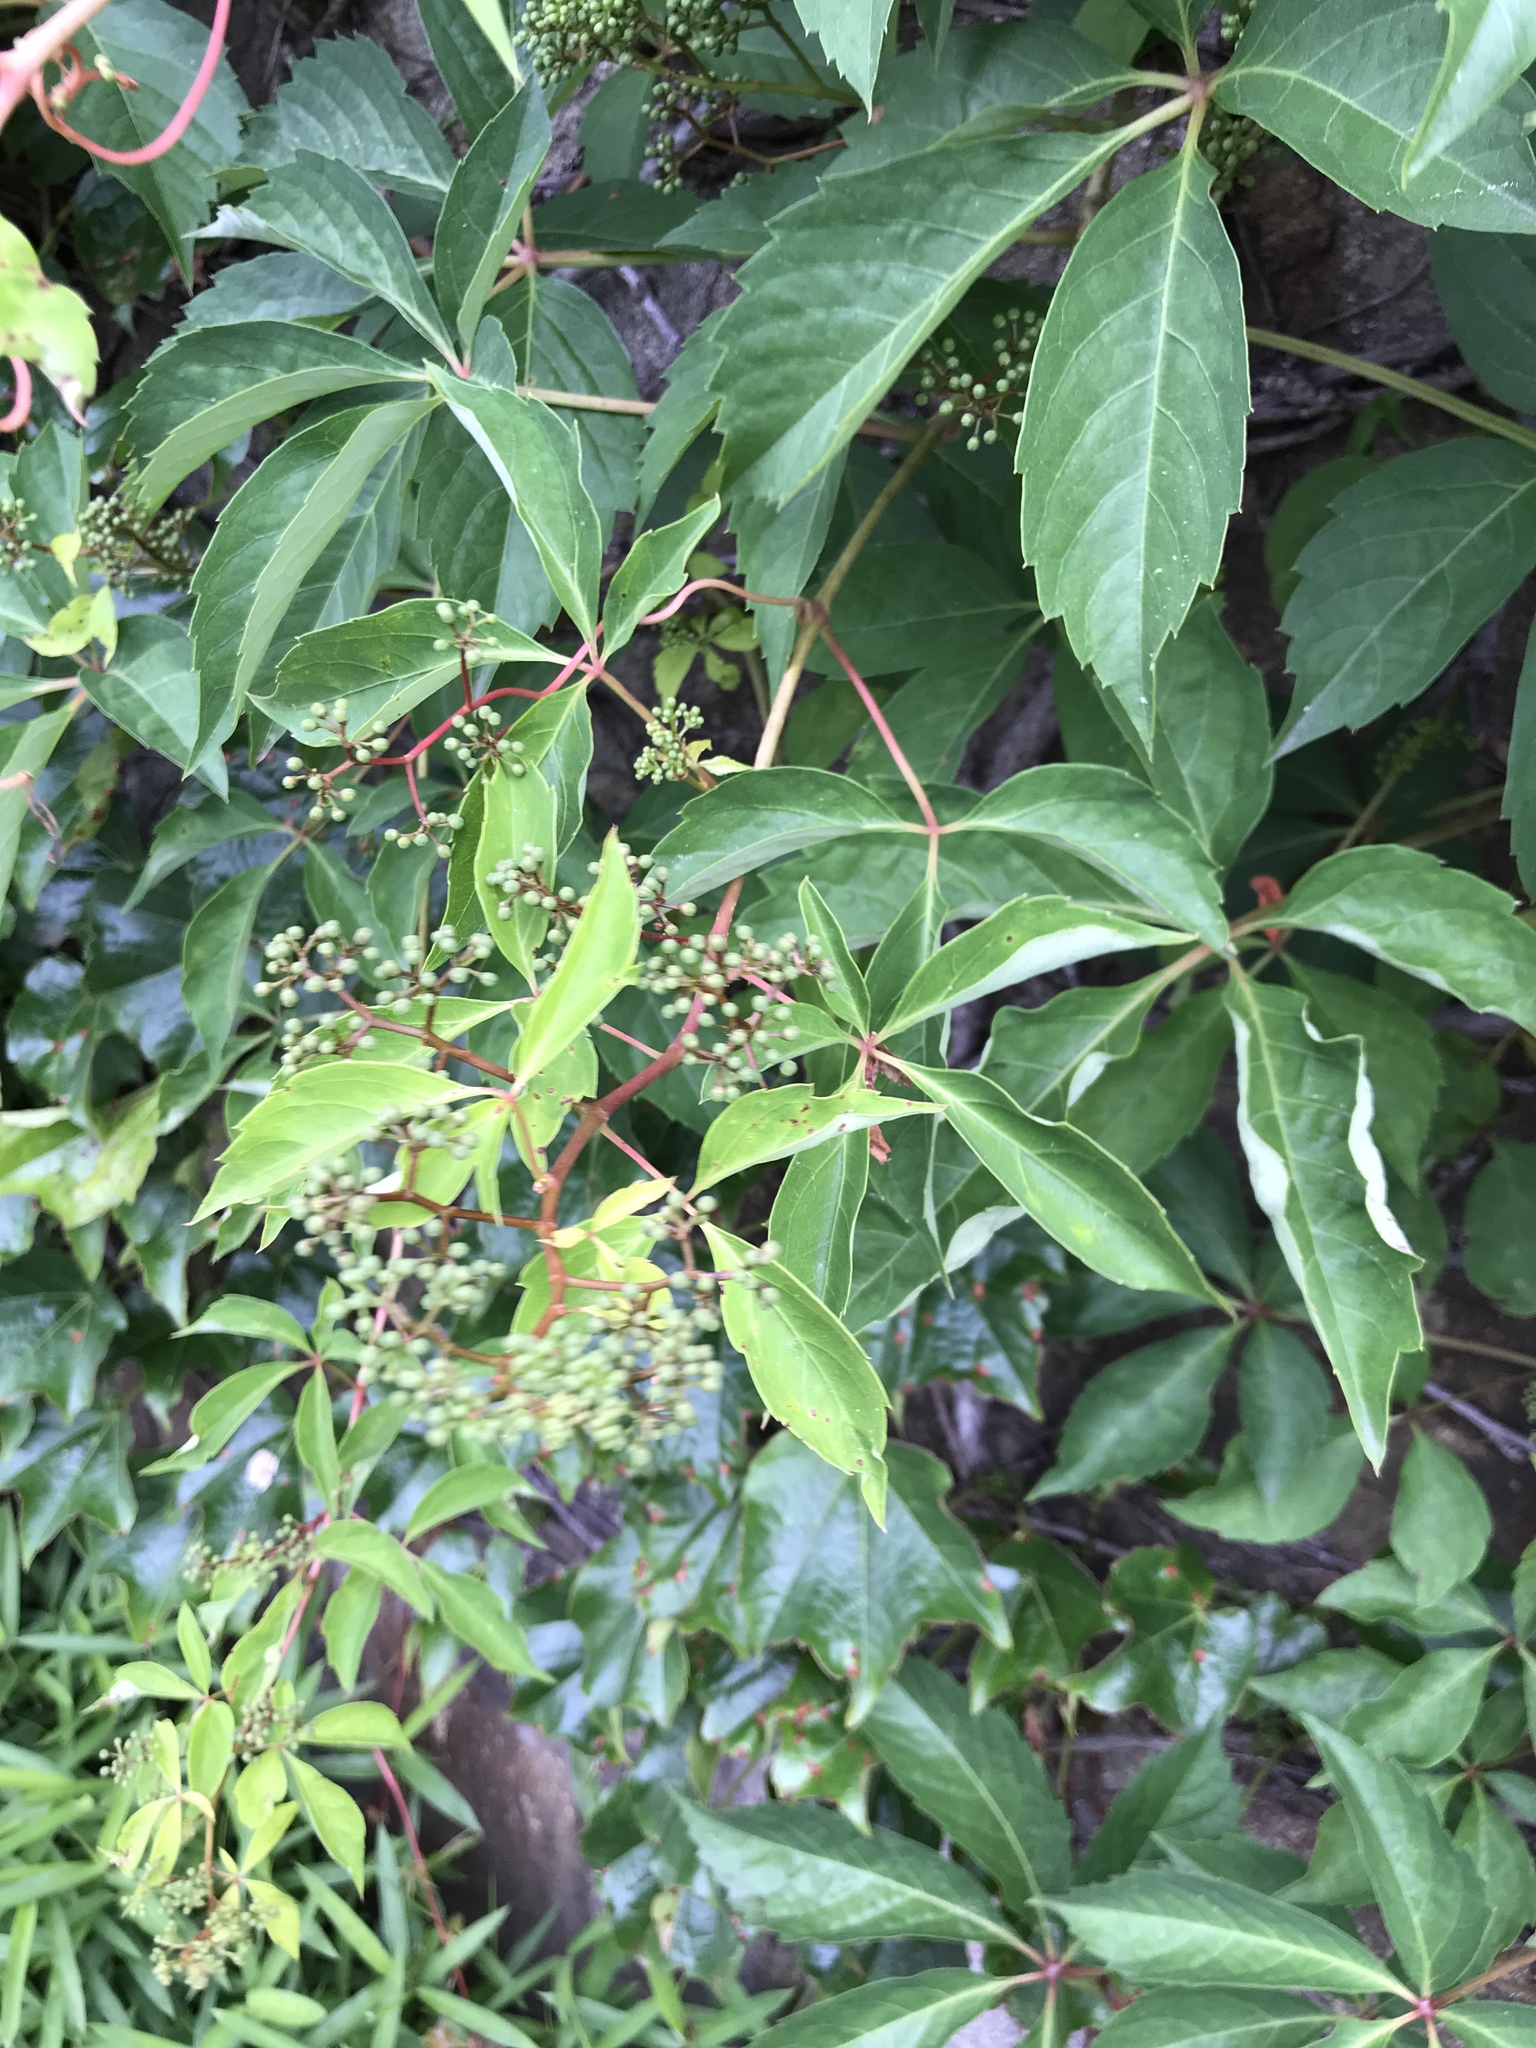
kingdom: Plantae
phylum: Tracheophyta
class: Magnoliopsida
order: Vitales
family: Vitaceae
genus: Parthenocissus
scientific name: Parthenocissus quinquefolia
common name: Virginia-creeper
